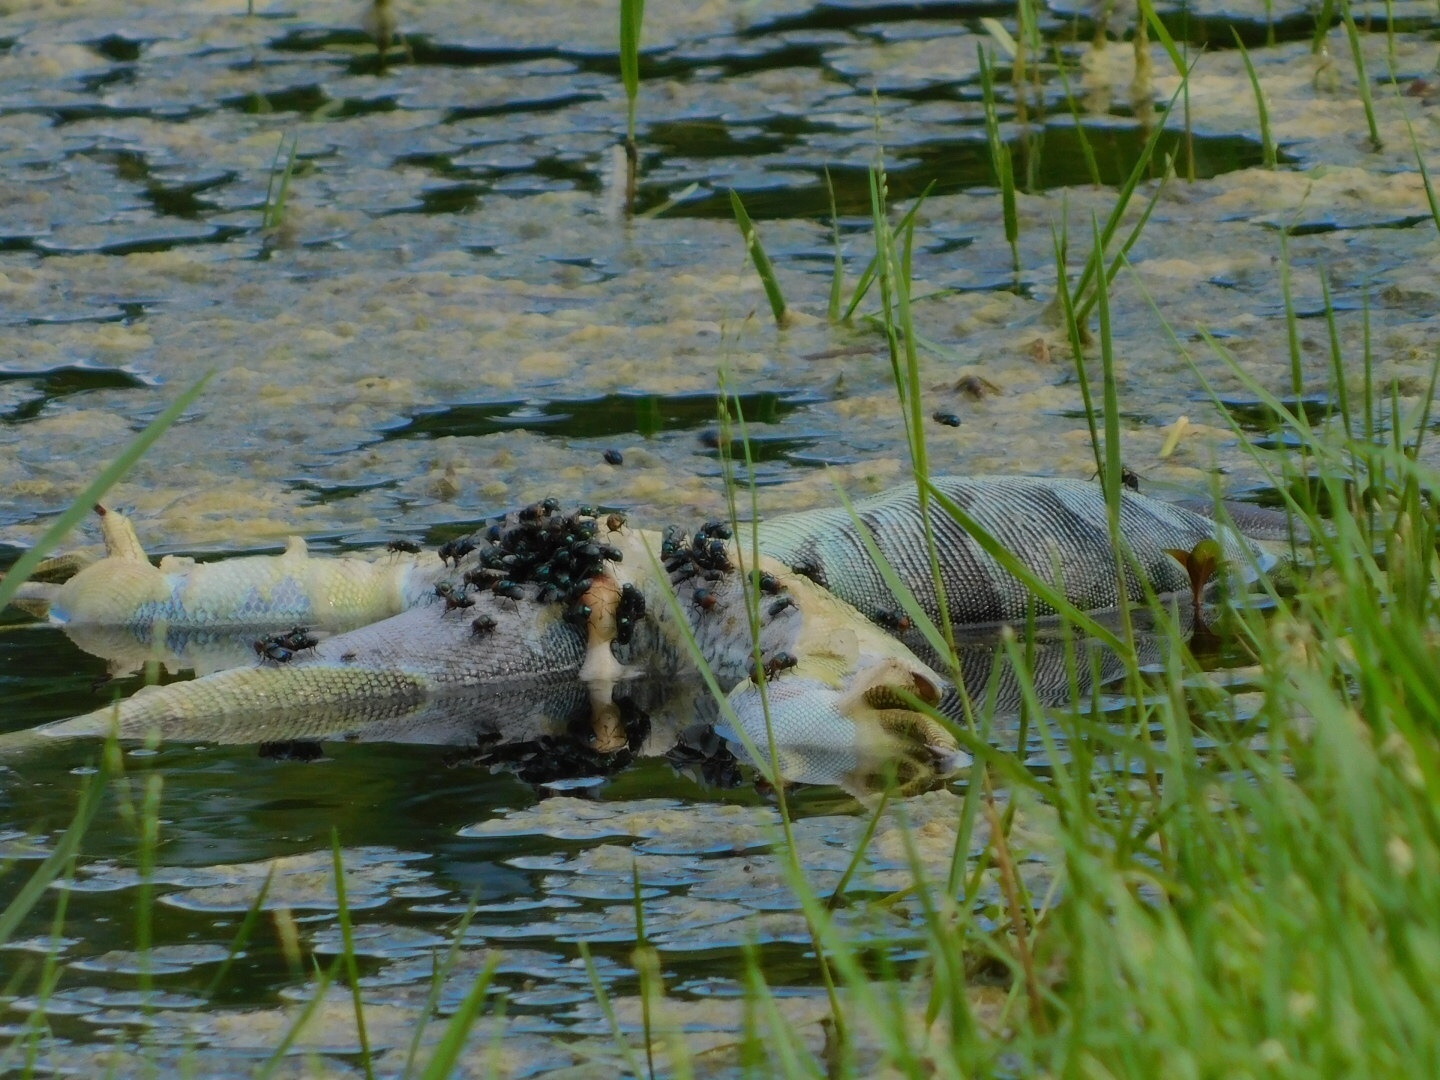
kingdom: Animalia
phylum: Chordata
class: Squamata
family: Iguanidae
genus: Iguana
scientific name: Iguana iguana
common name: Green iguana
